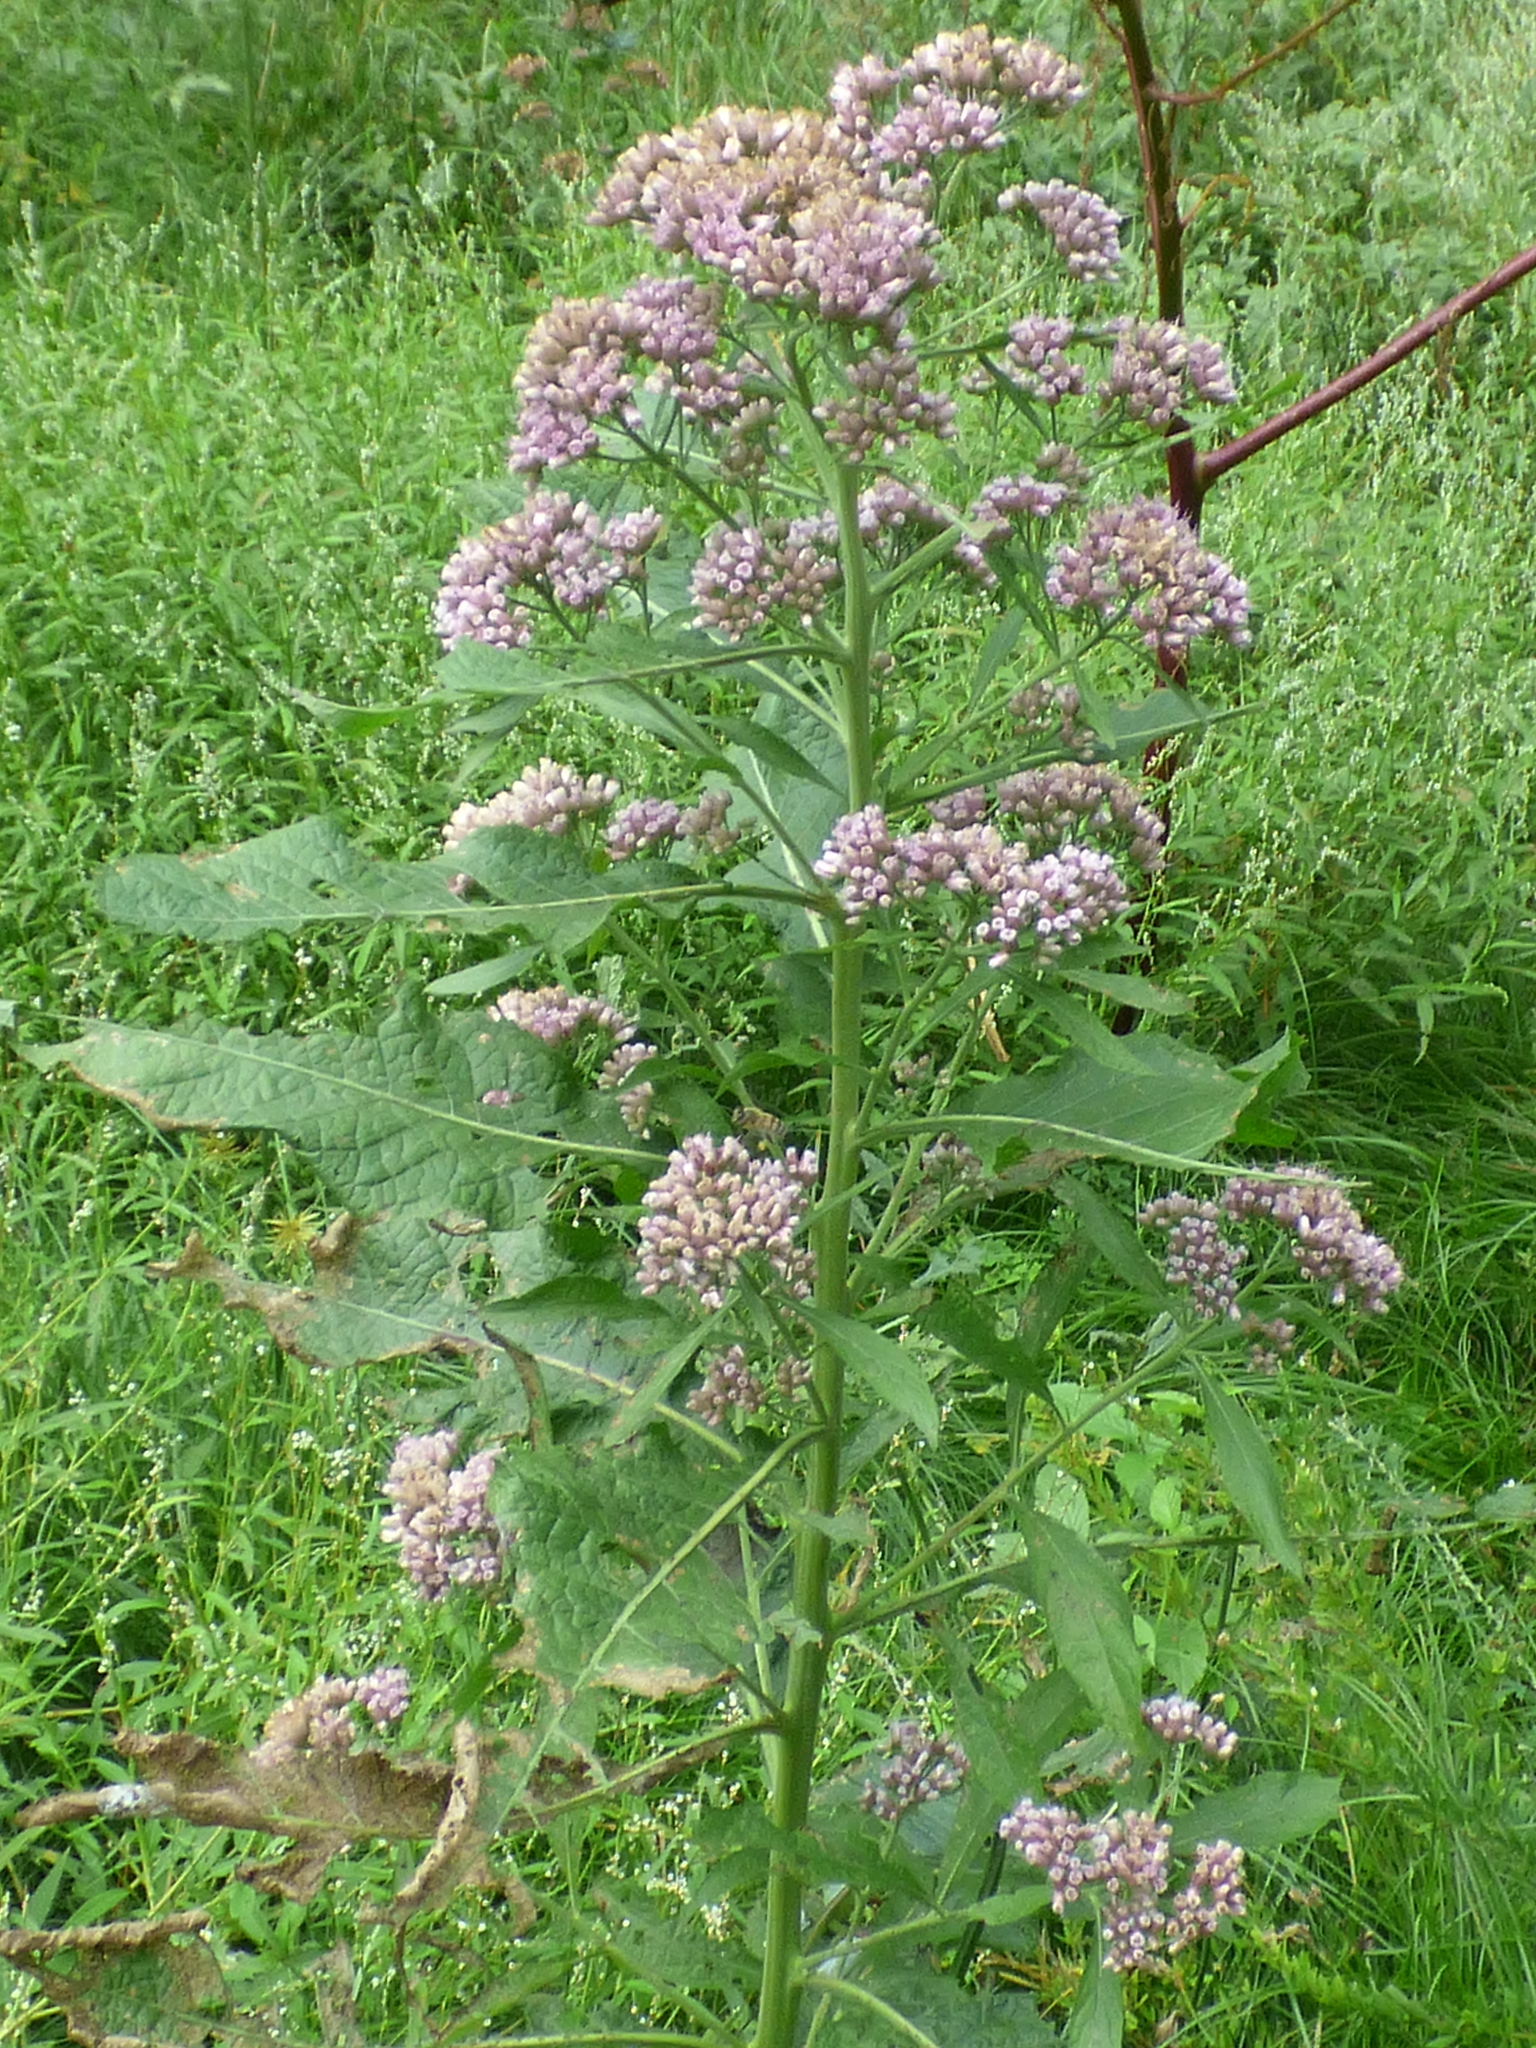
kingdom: Plantae
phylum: Tracheophyta
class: Magnoliopsida
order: Asterales
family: Asteraceae
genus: Pluchea
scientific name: Pluchea camphorata
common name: Camphor pluchea
